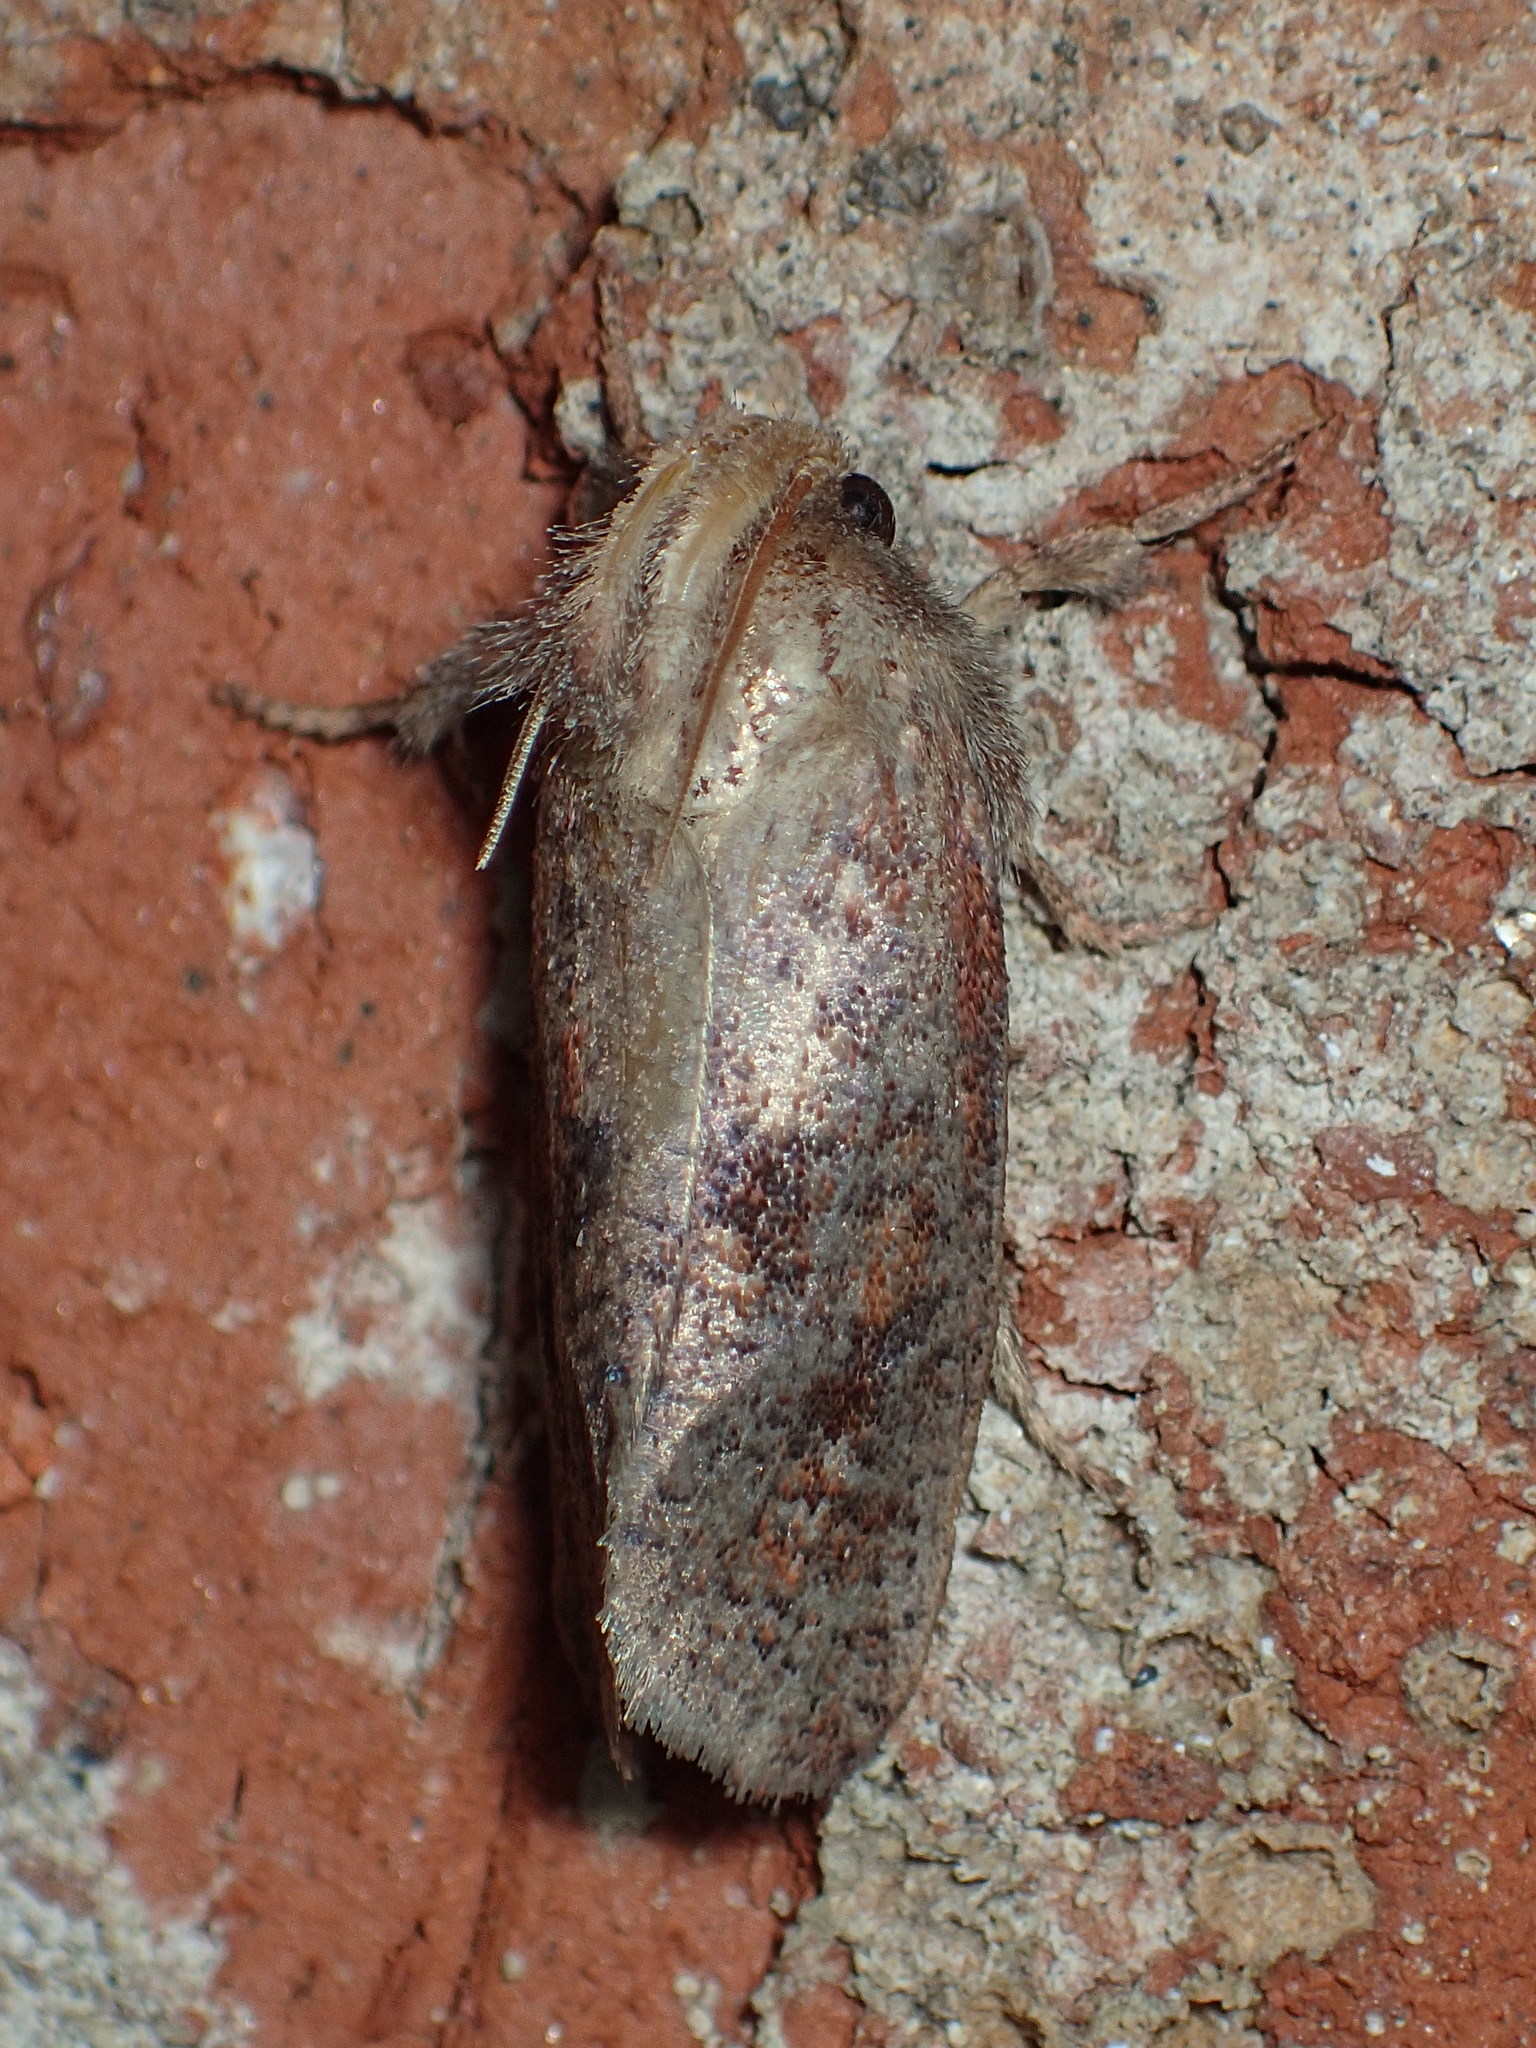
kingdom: Animalia
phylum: Arthropoda
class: Insecta
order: Lepidoptera
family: Tineidae
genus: Acrolophus
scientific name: Acrolophus plumifrontella
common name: Eastern grass tubeworm moth
